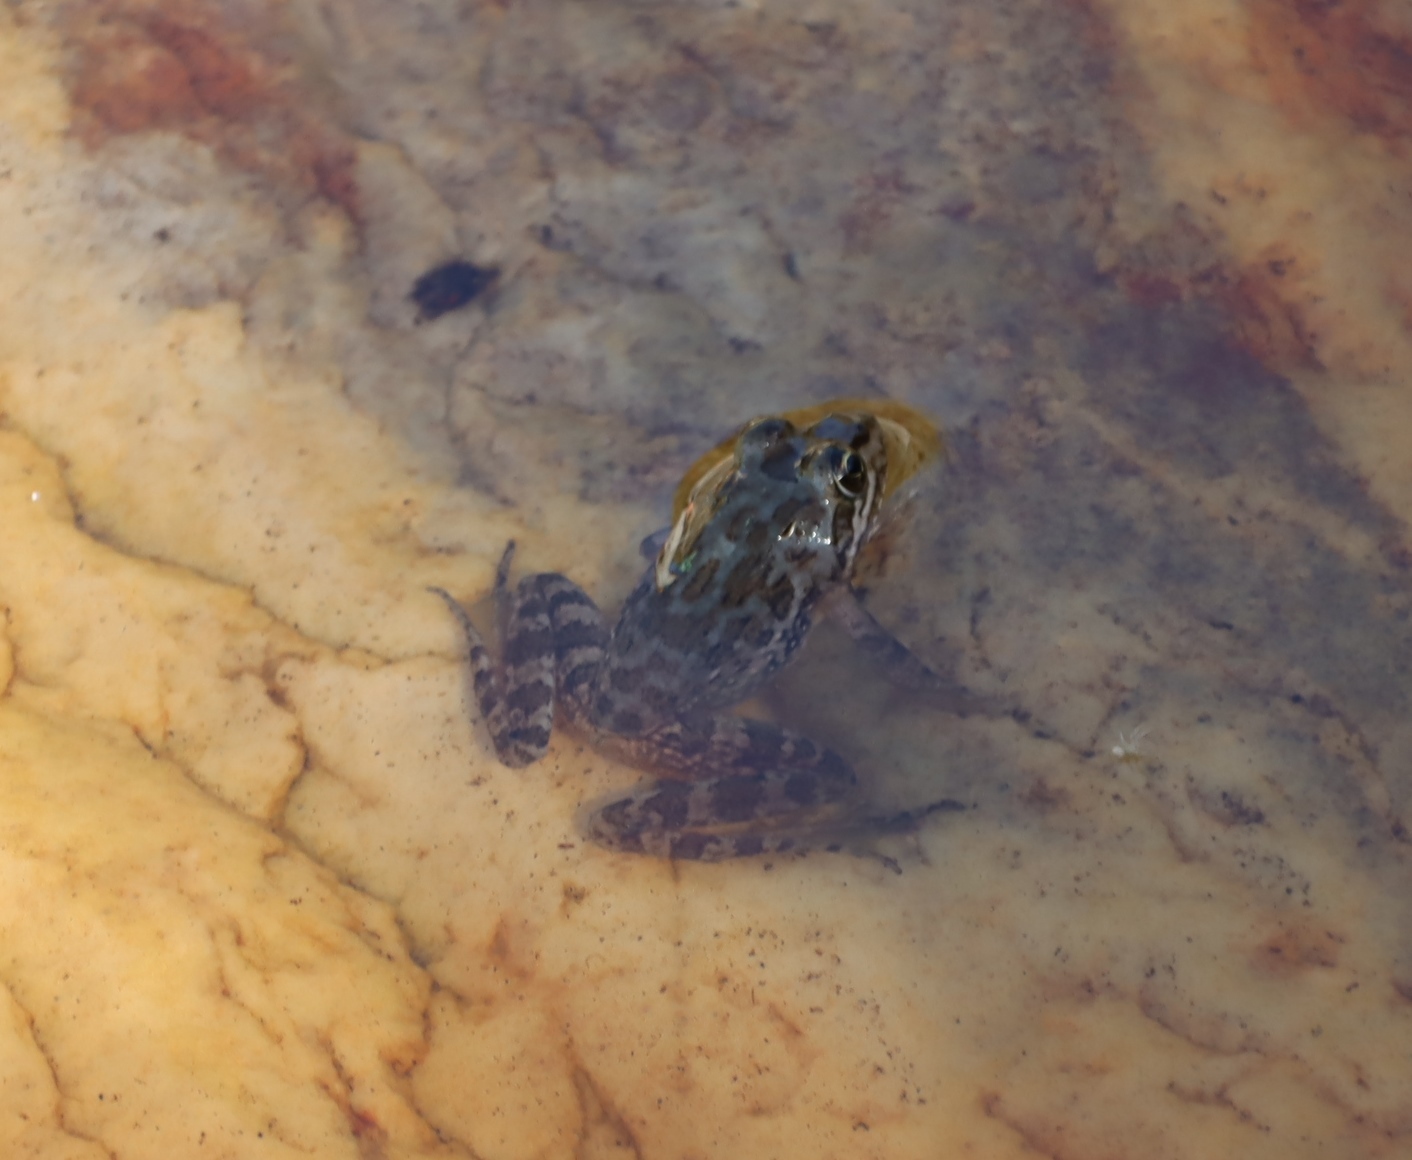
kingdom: Animalia
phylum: Chordata
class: Amphibia
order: Anura
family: Pyxicephalidae
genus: Amietia
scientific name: Amietia fuscigula
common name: Cape rana
